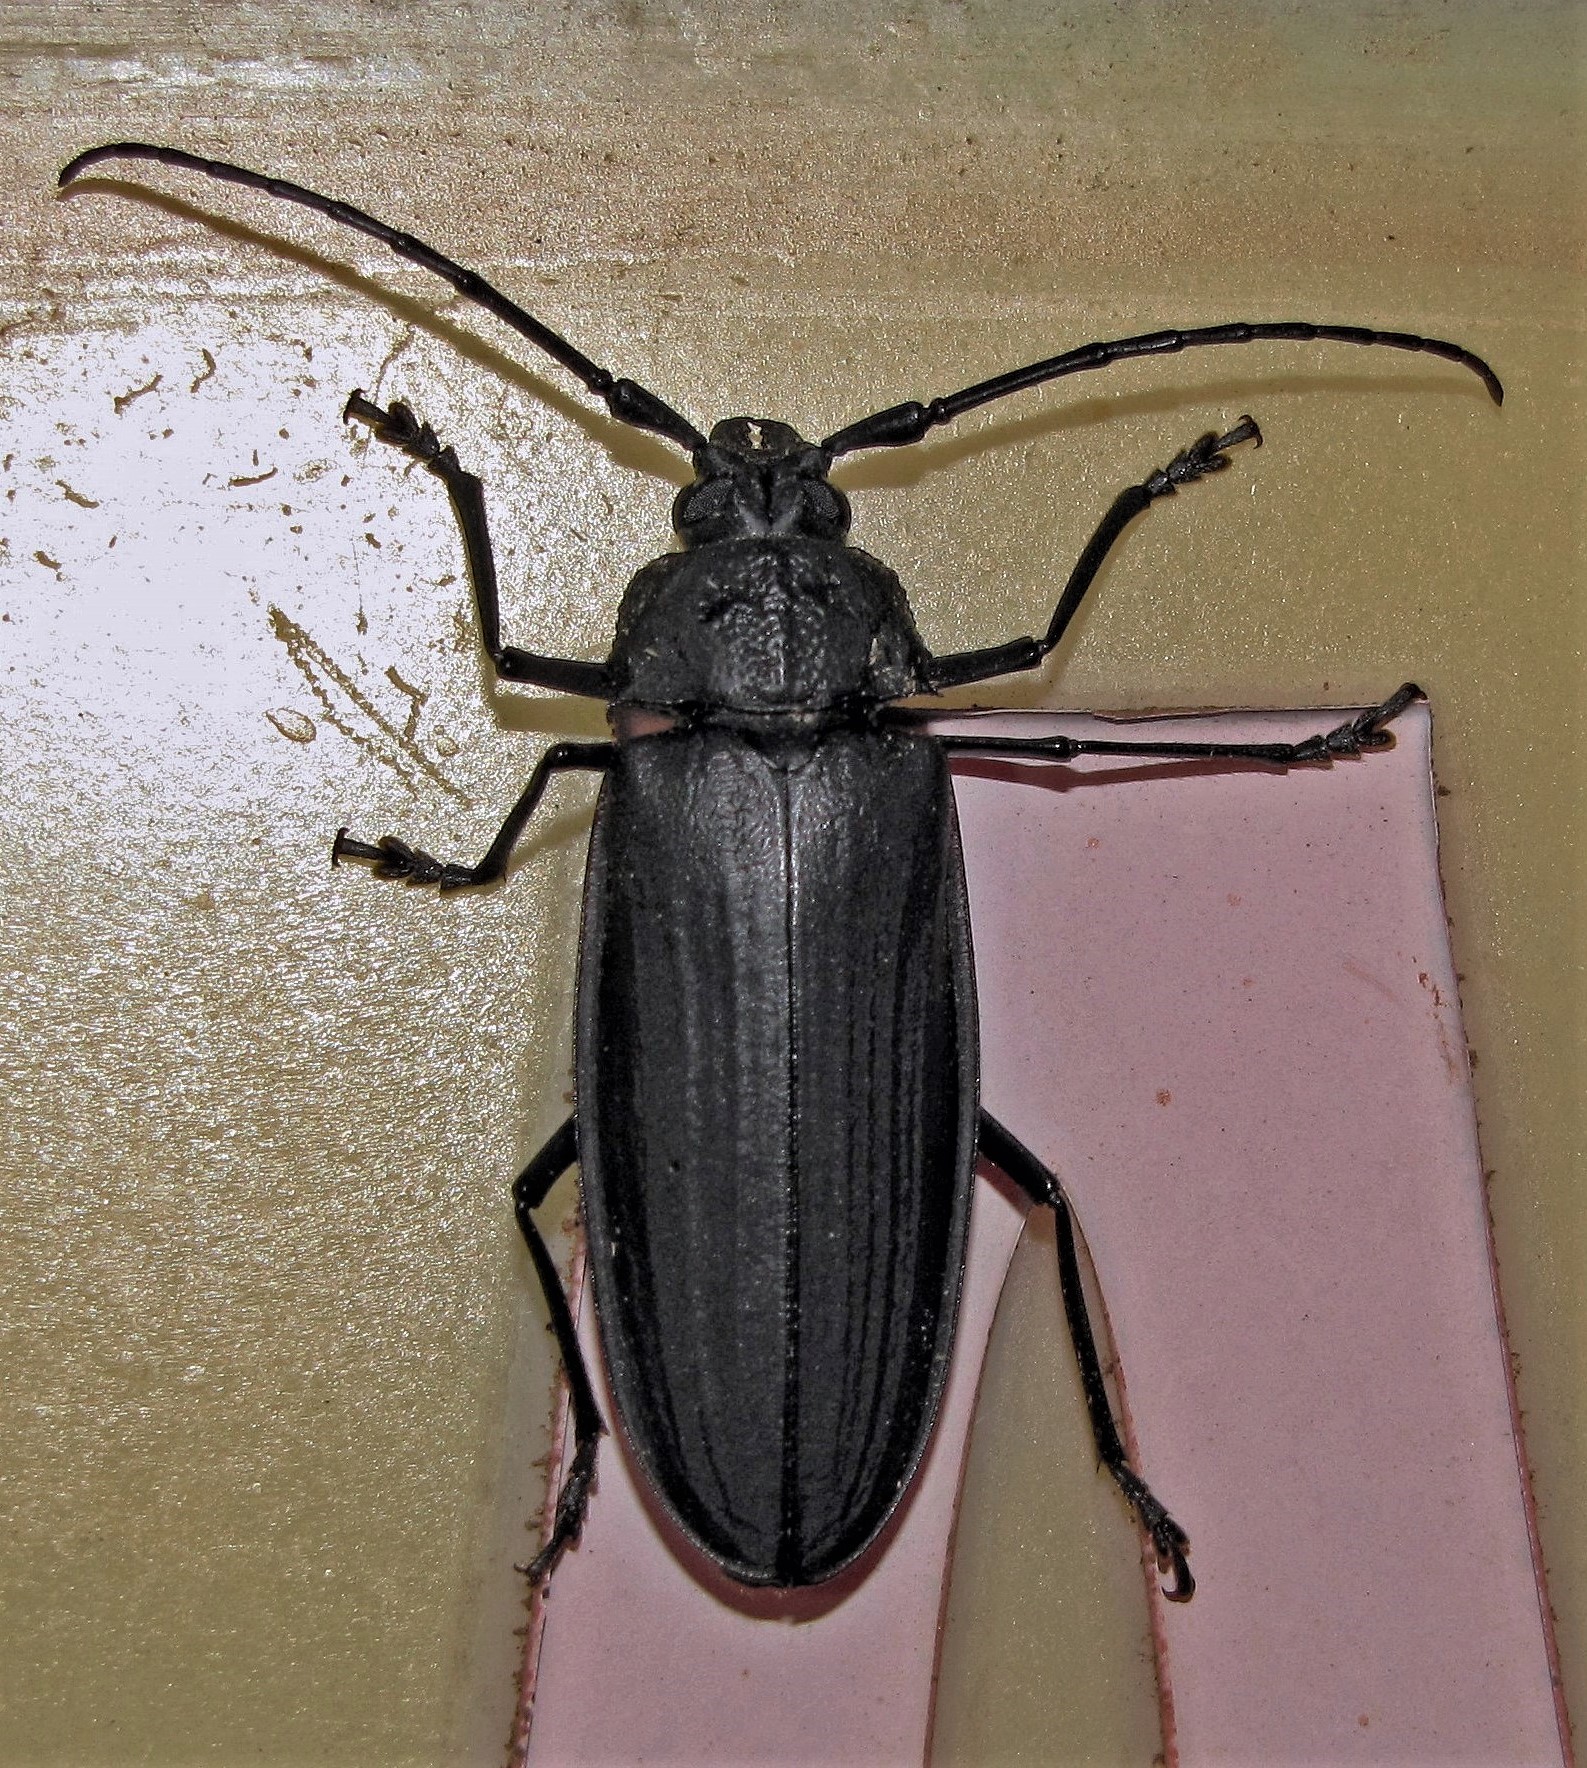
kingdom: Animalia
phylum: Arthropoda
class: Insecta
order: Coleoptera
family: Cerambycidae
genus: Navosoma
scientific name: Navosoma luctuosum
